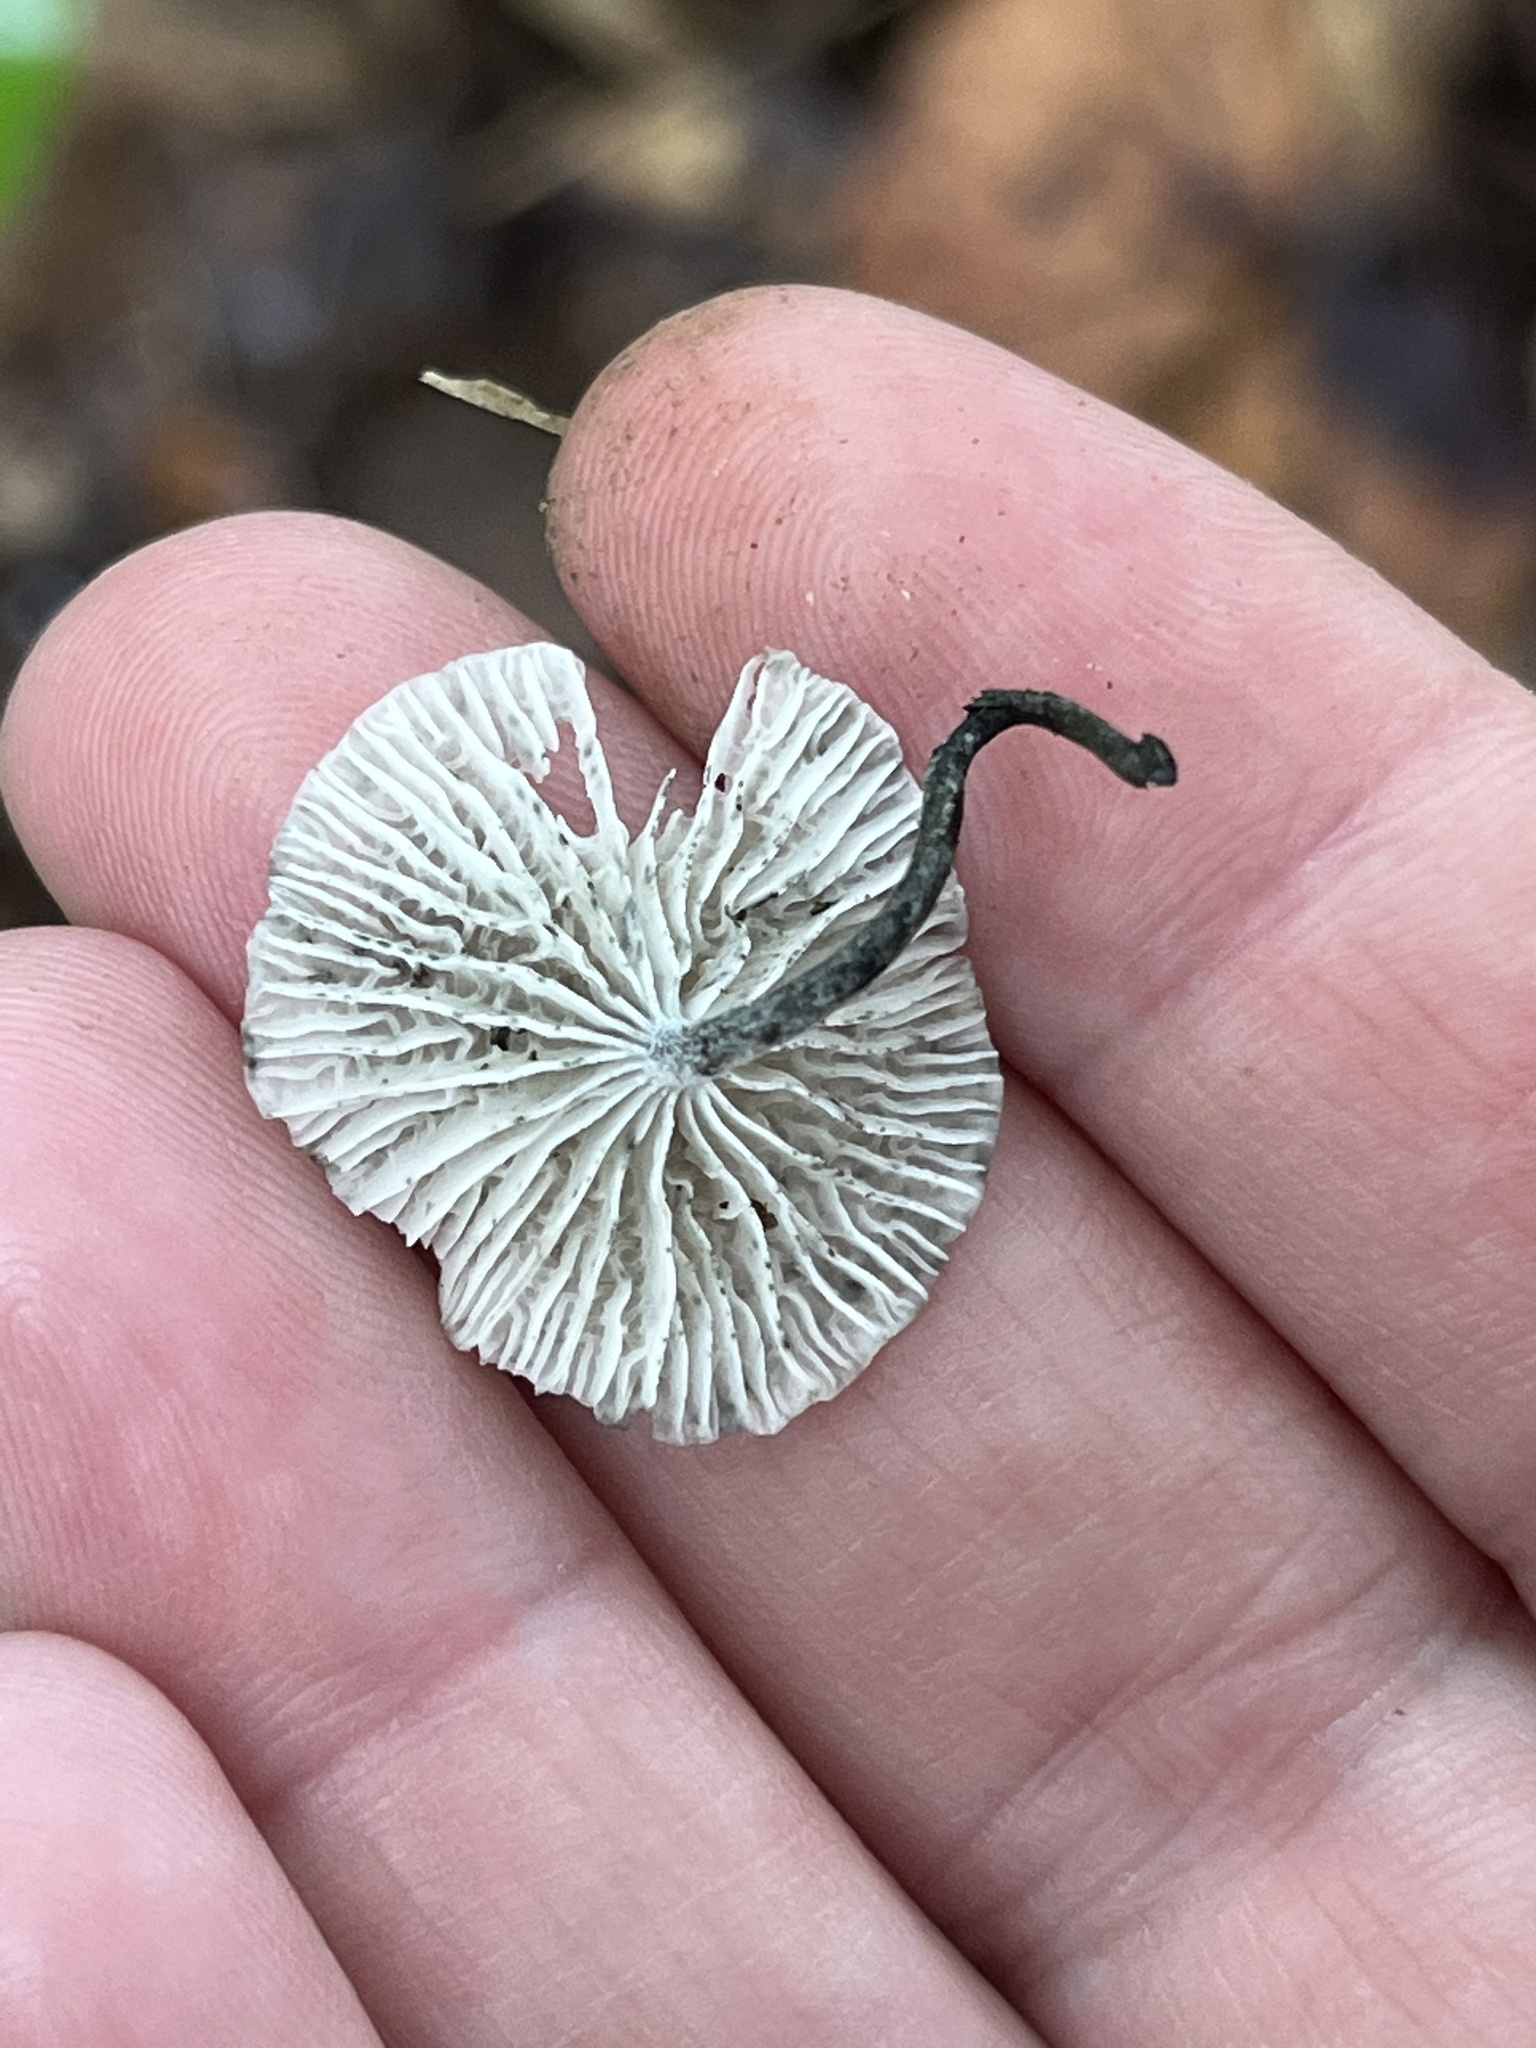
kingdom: Fungi
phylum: Basidiomycota
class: Agaricomycetes
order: Agaricales
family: Marasmiaceae
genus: Tetrapyrgos
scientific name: Tetrapyrgos nigripes
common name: Black-stalked marasmius
